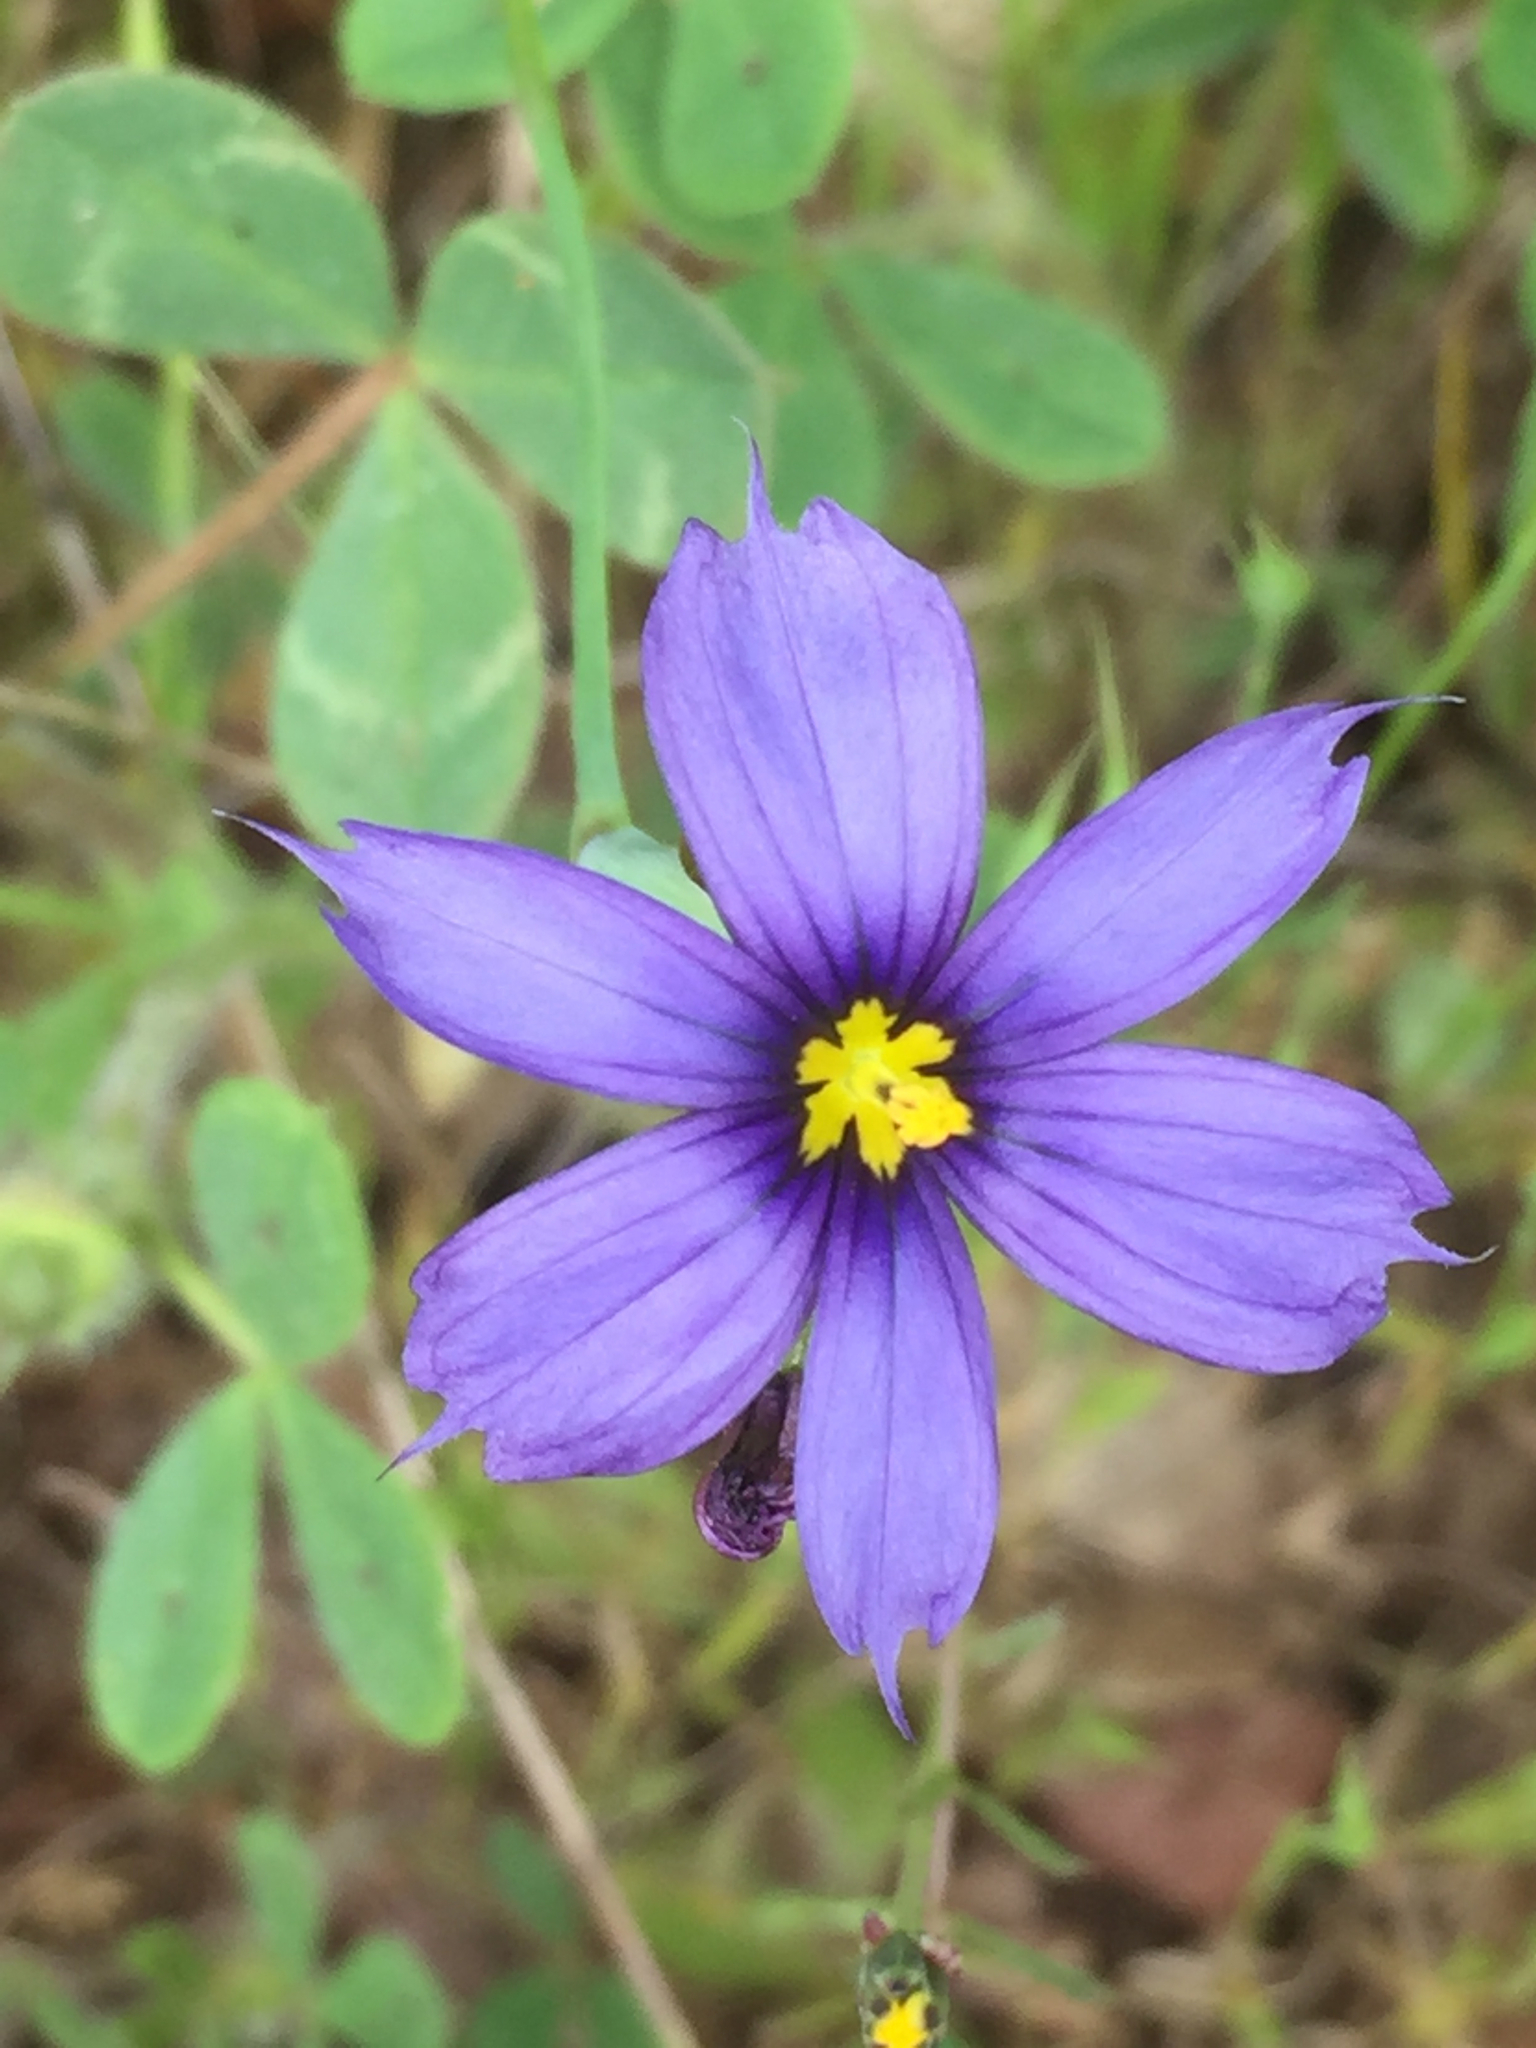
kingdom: Plantae
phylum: Tracheophyta
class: Liliopsida
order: Asparagales
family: Iridaceae
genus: Sisyrinchium
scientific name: Sisyrinchium bellum
